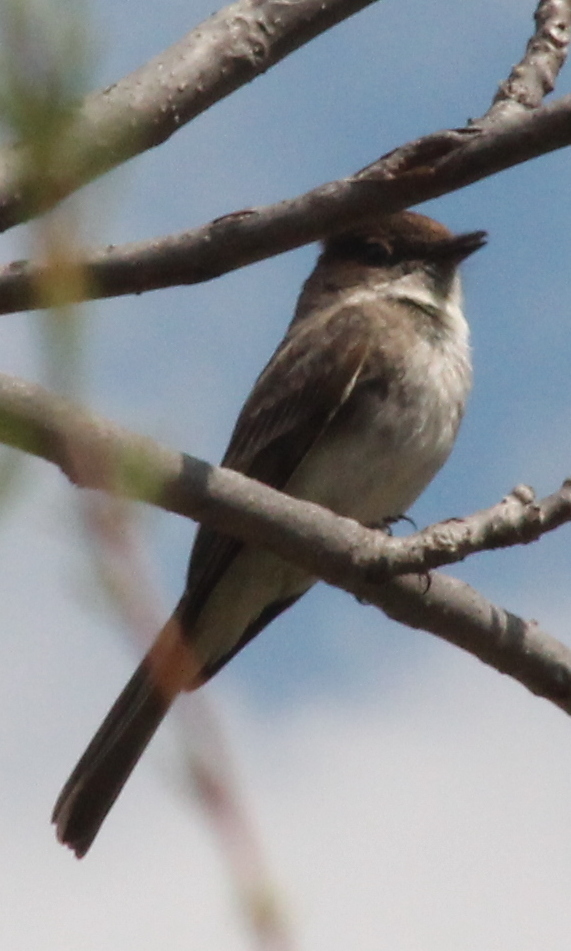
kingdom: Animalia
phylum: Chordata
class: Aves
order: Passeriformes
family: Tyrannidae
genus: Sayornis
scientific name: Sayornis phoebe
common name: Eastern phoebe
